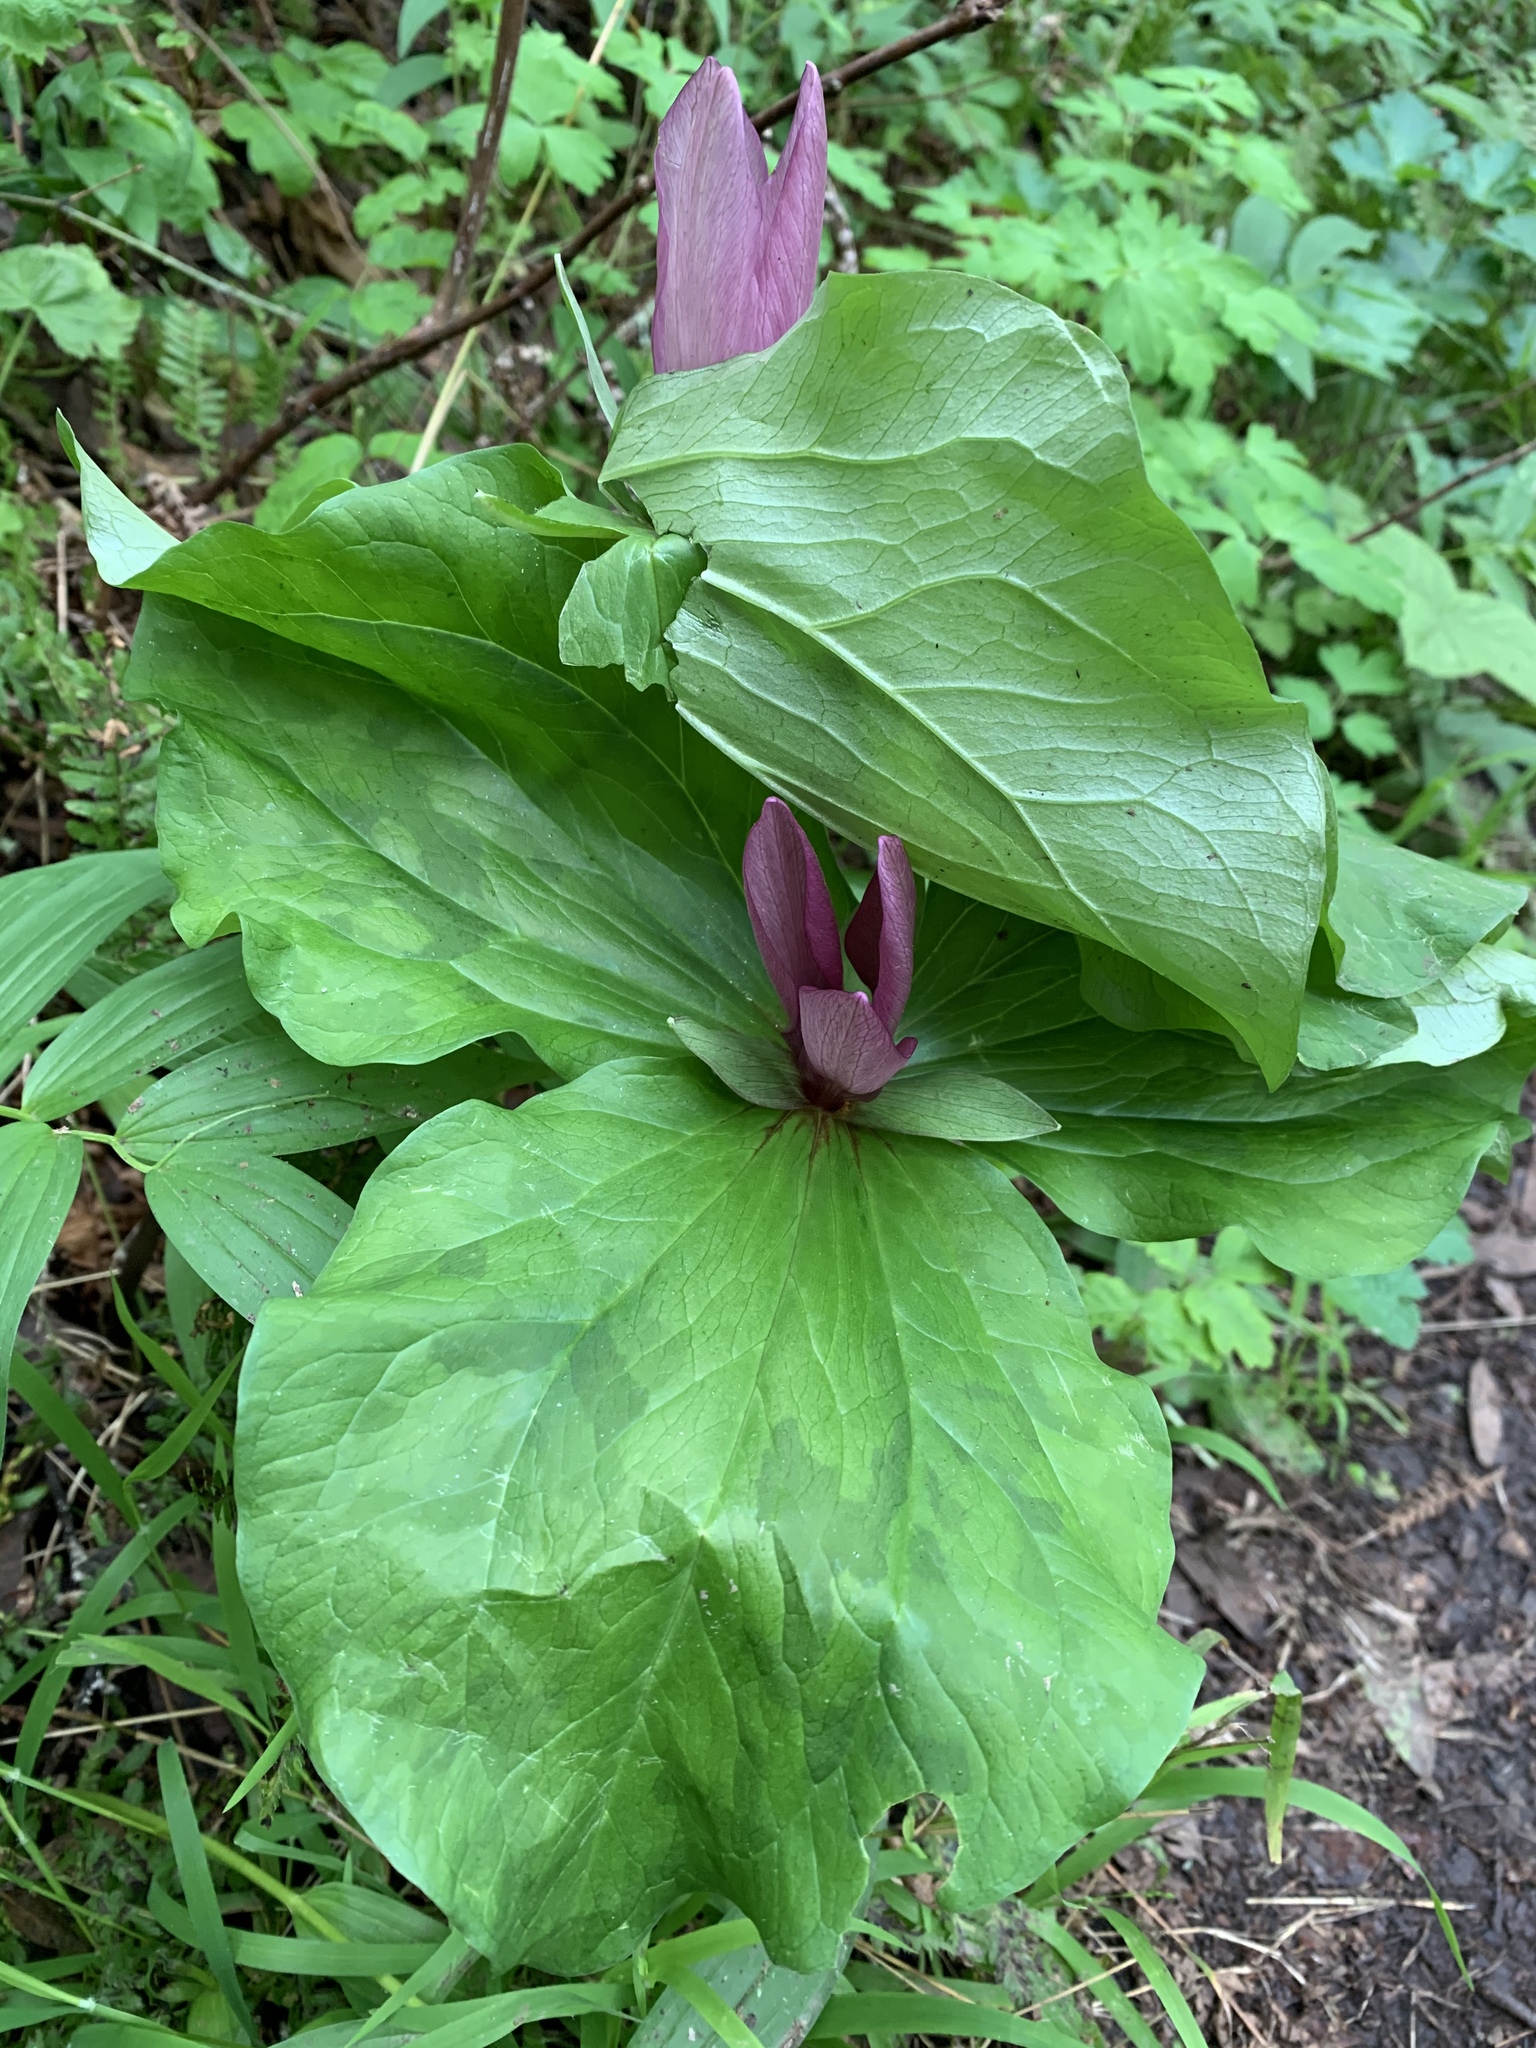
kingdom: Plantae
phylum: Tracheophyta
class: Liliopsida
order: Liliales
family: Melanthiaceae
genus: Trillium
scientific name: Trillium chloropetalum
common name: Giant trillium
